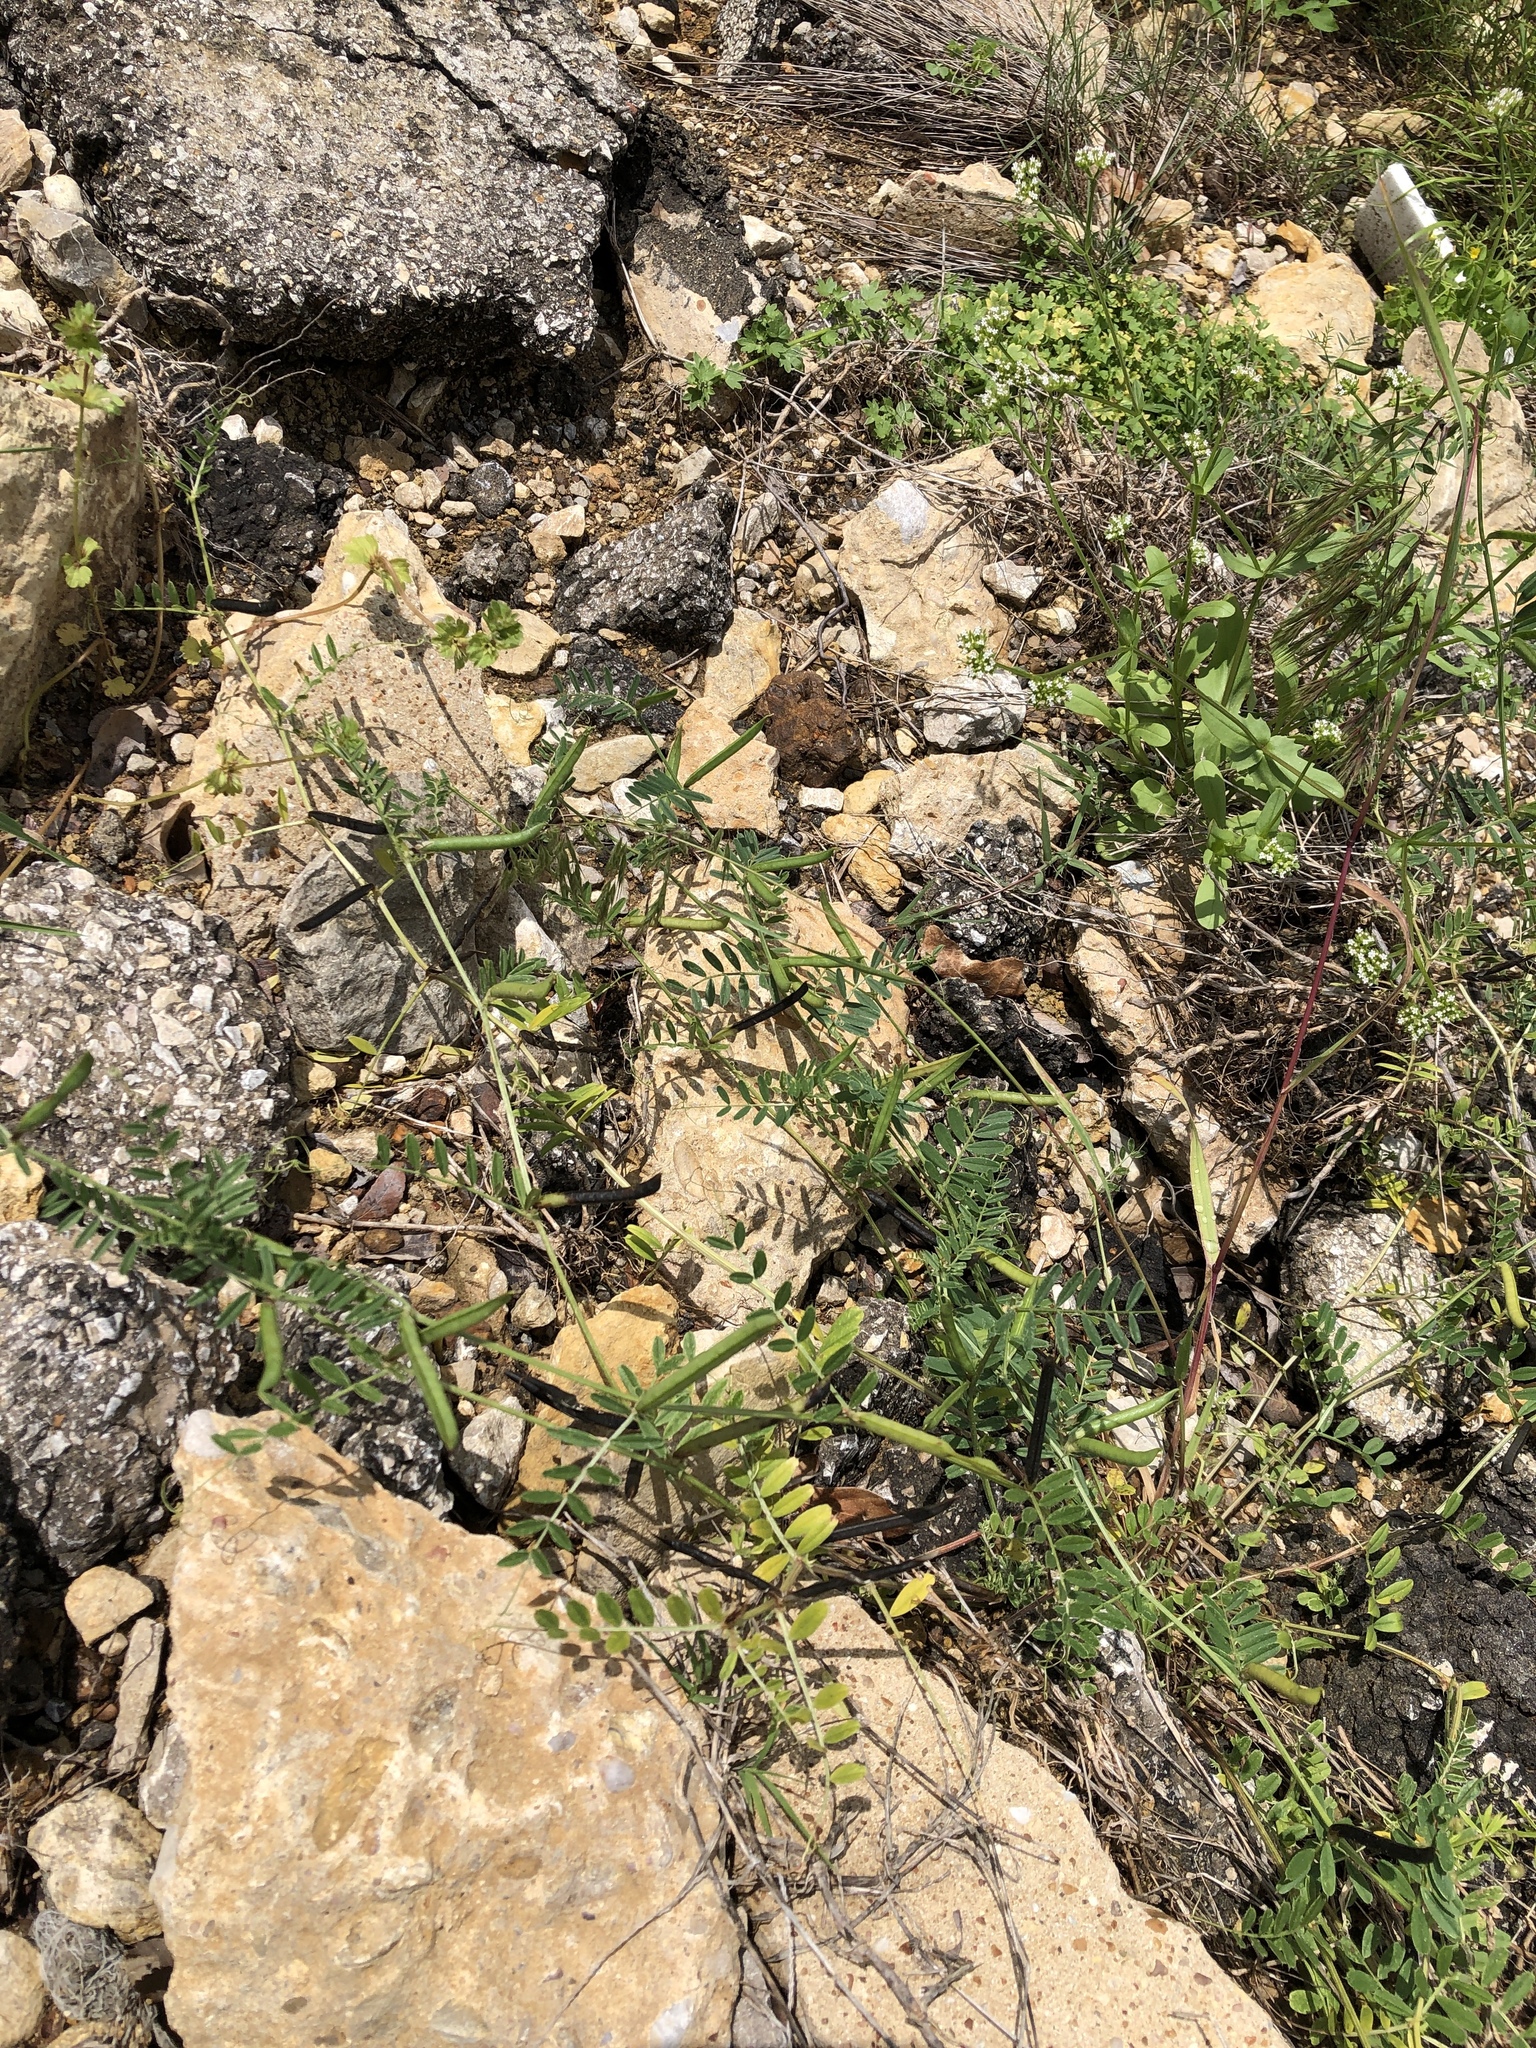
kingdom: Plantae
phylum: Tracheophyta
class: Magnoliopsida
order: Fabales
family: Fabaceae
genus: Vicia
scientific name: Vicia sativa
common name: Garden vetch
